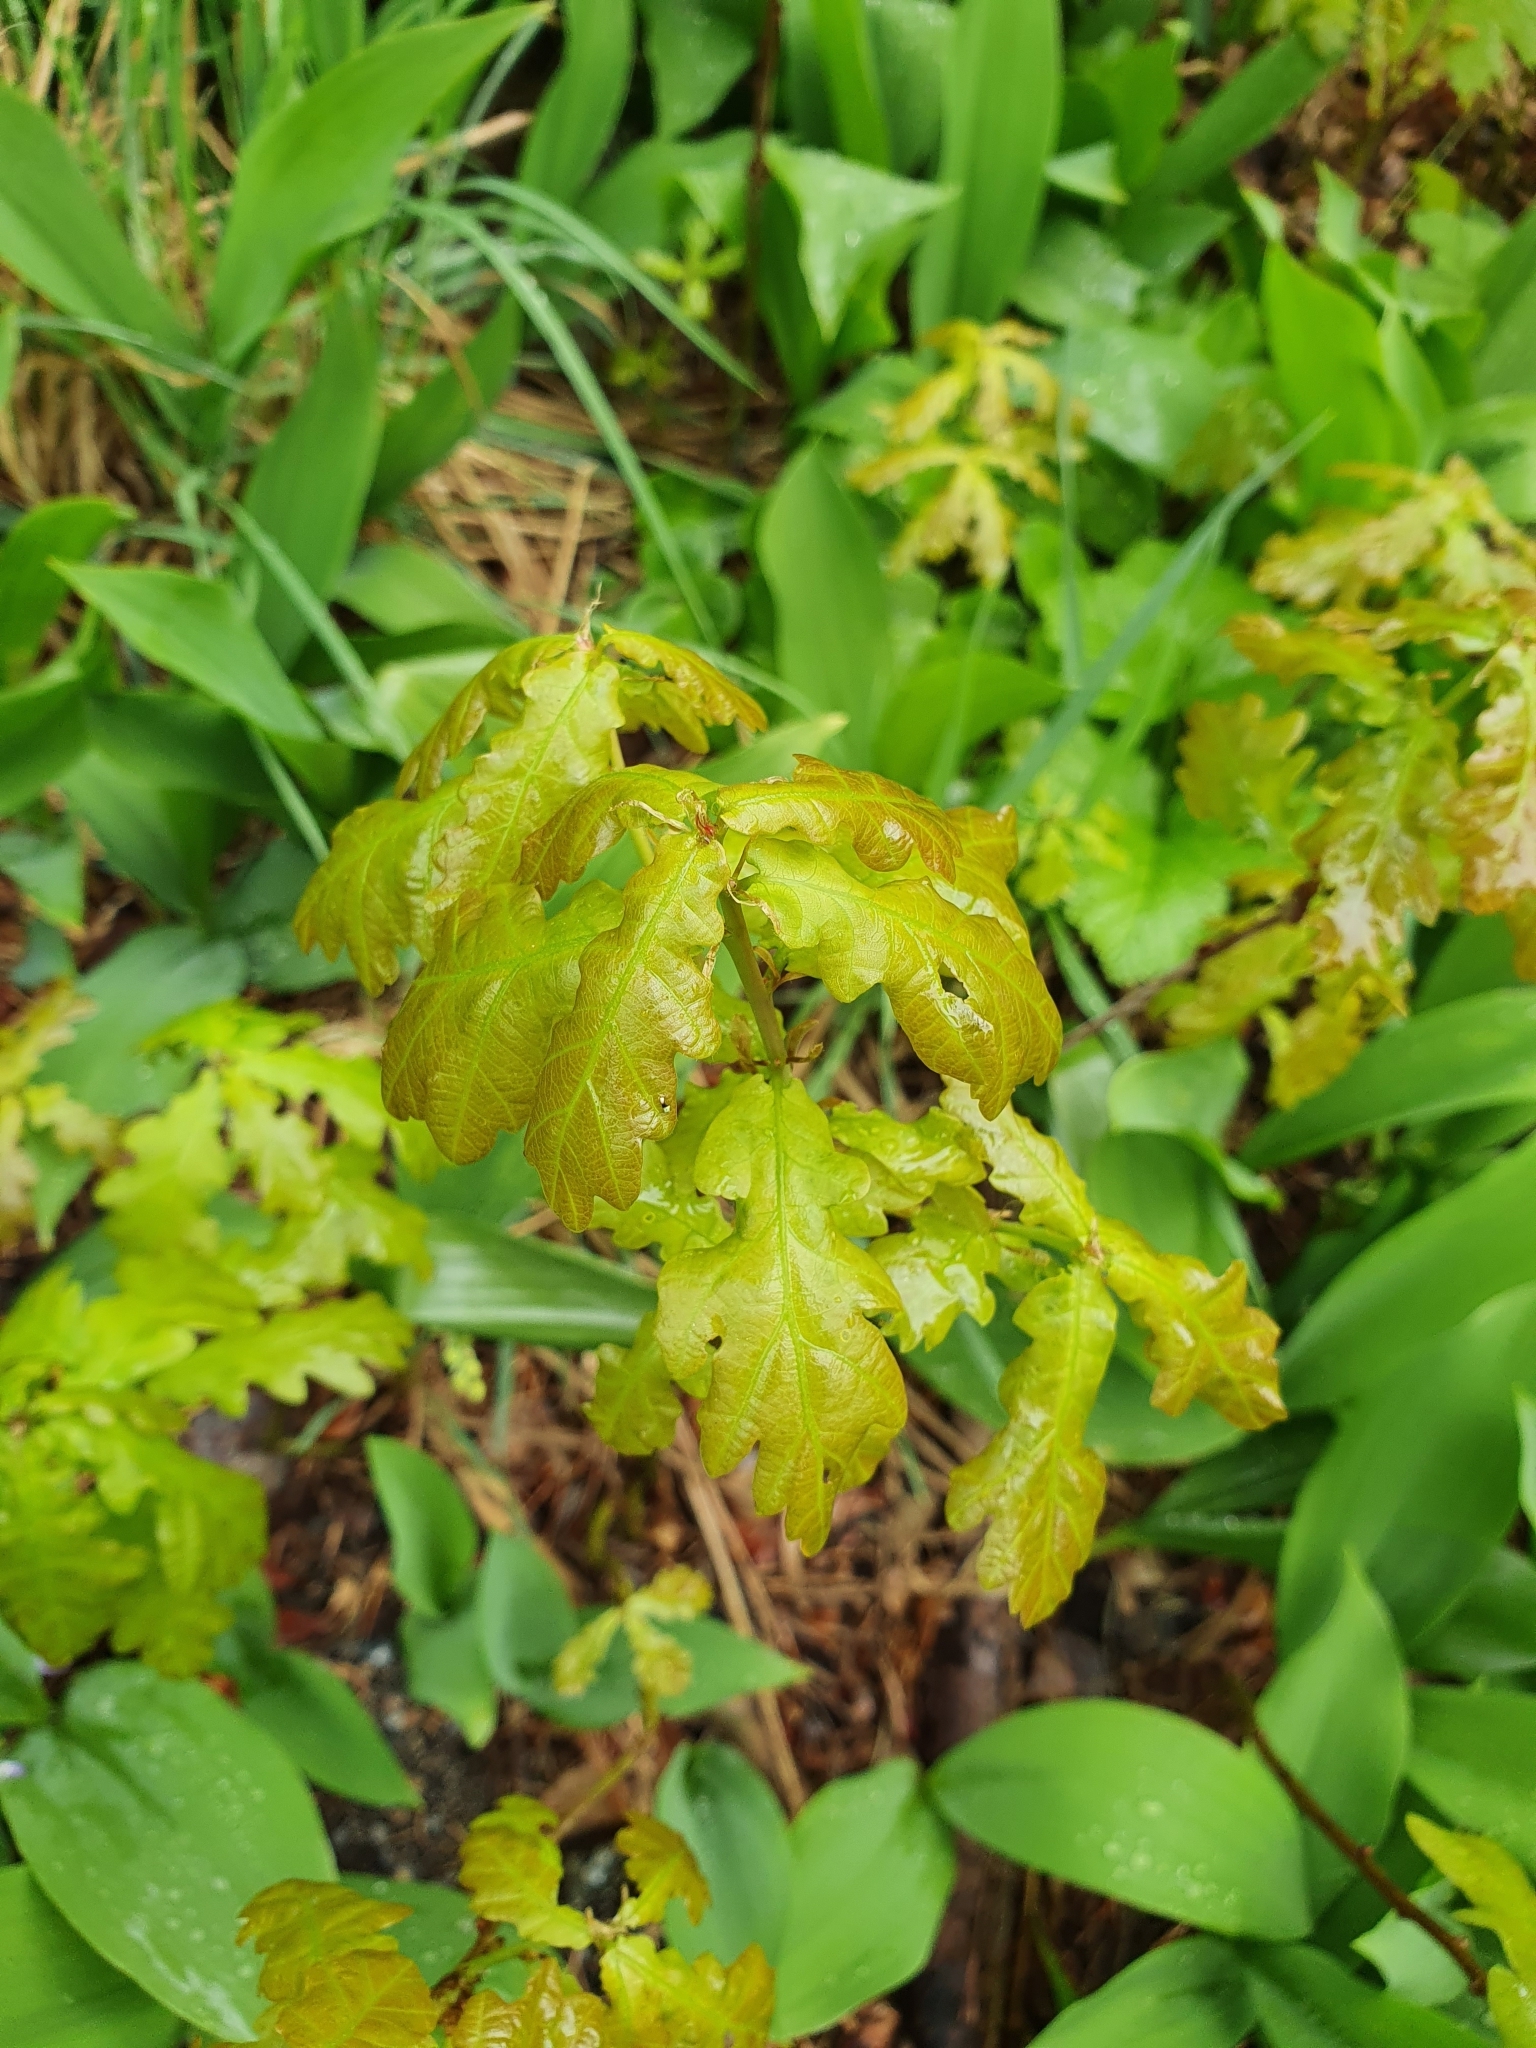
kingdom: Plantae
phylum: Tracheophyta
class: Magnoliopsida
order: Fagales
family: Fagaceae
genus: Quercus
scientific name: Quercus robur
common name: Pedunculate oak
